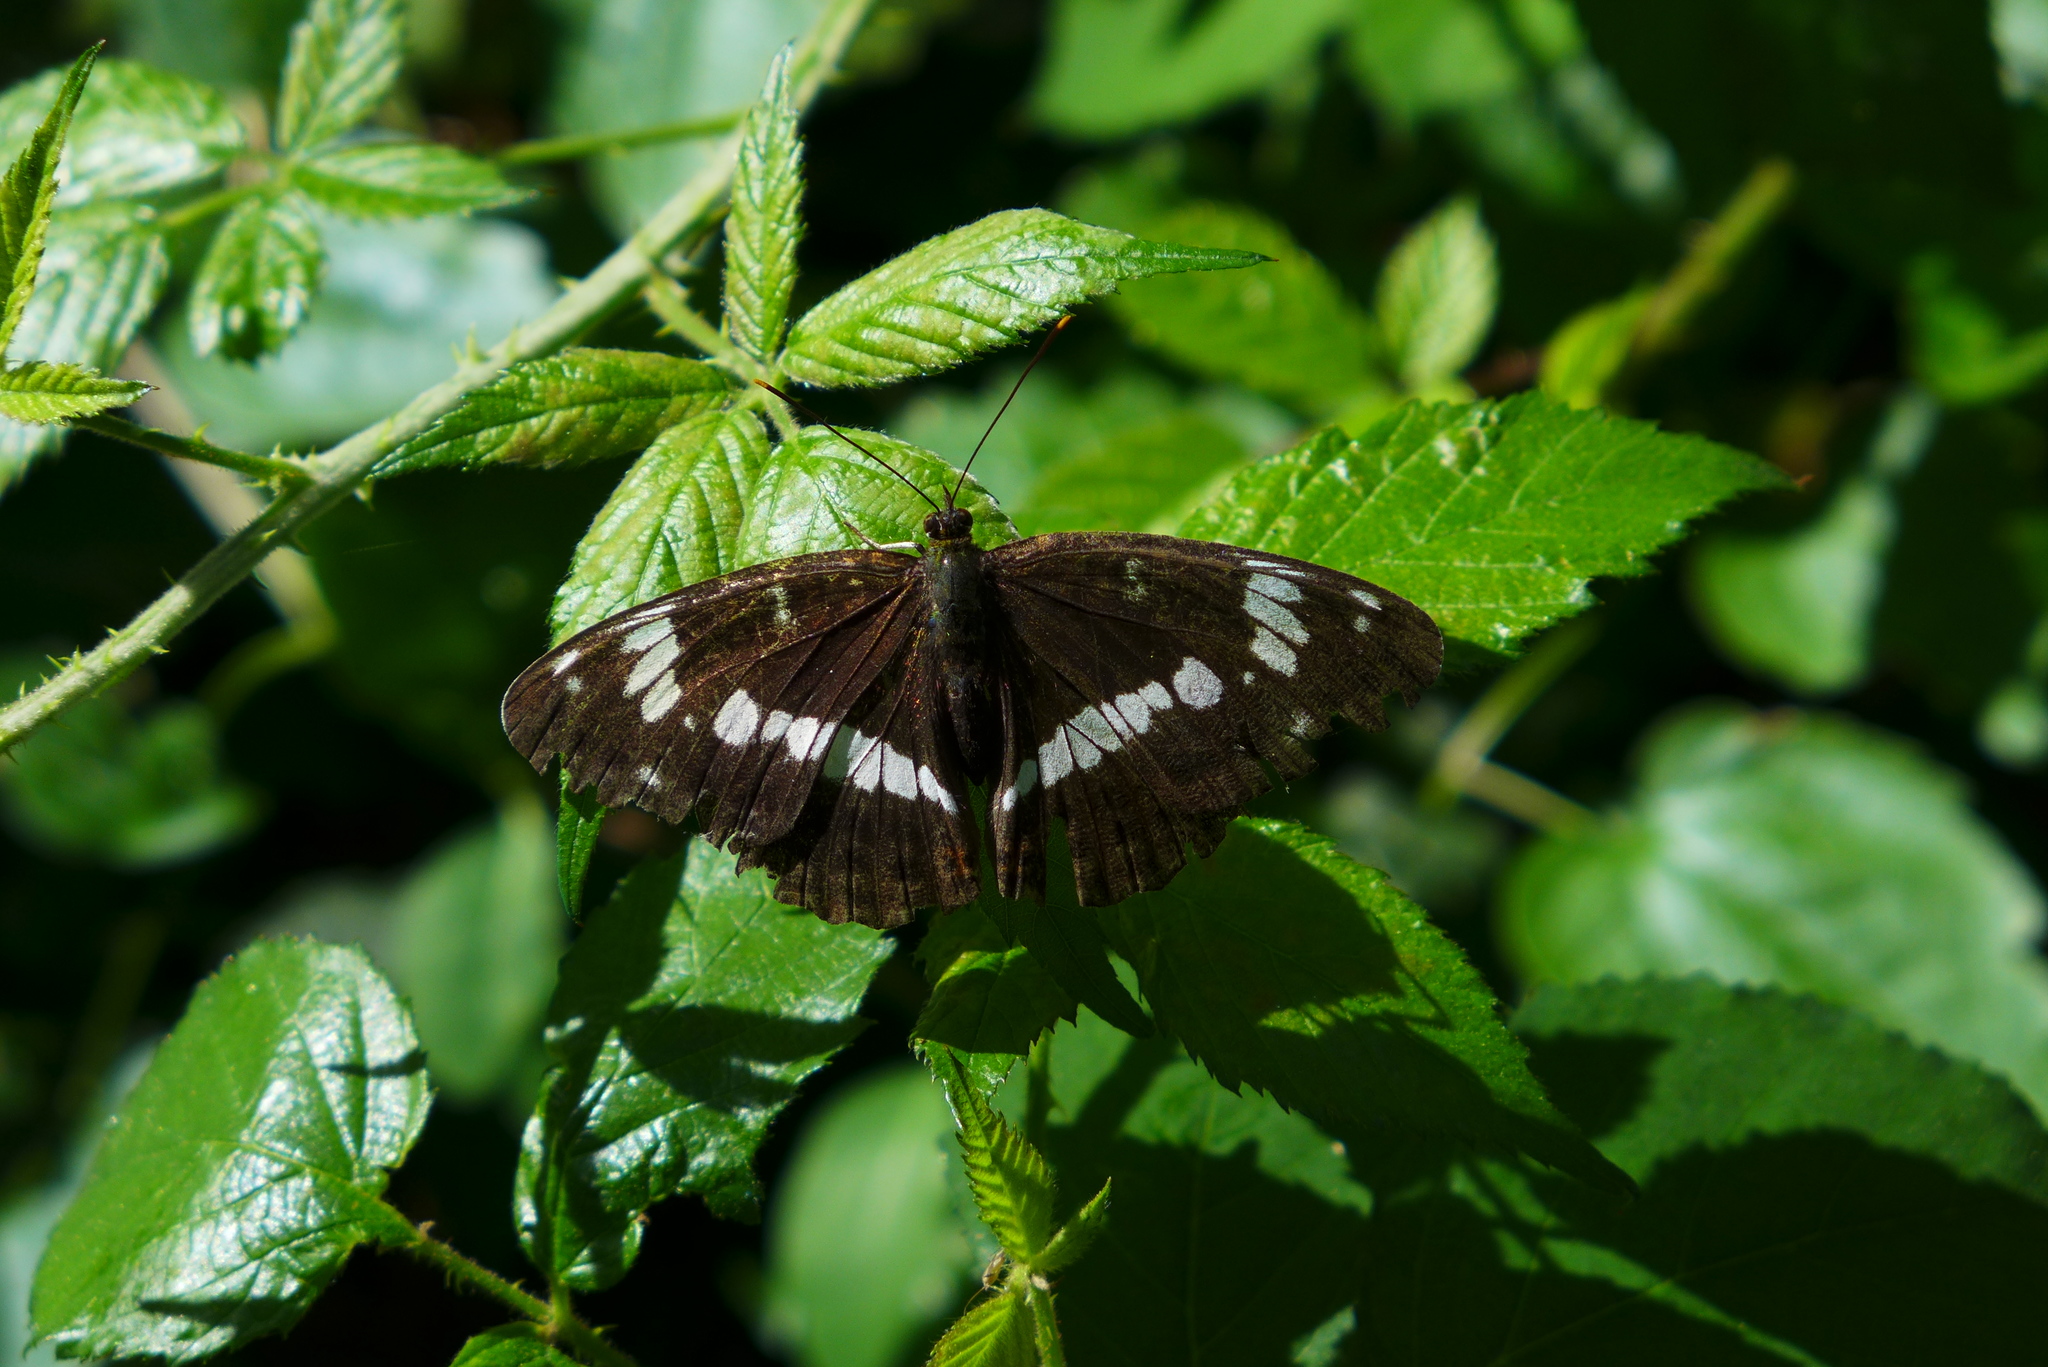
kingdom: Animalia
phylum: Arthropoda
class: Insecta
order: Lepidoptera
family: Nymphalidae
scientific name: Nymphalidae
